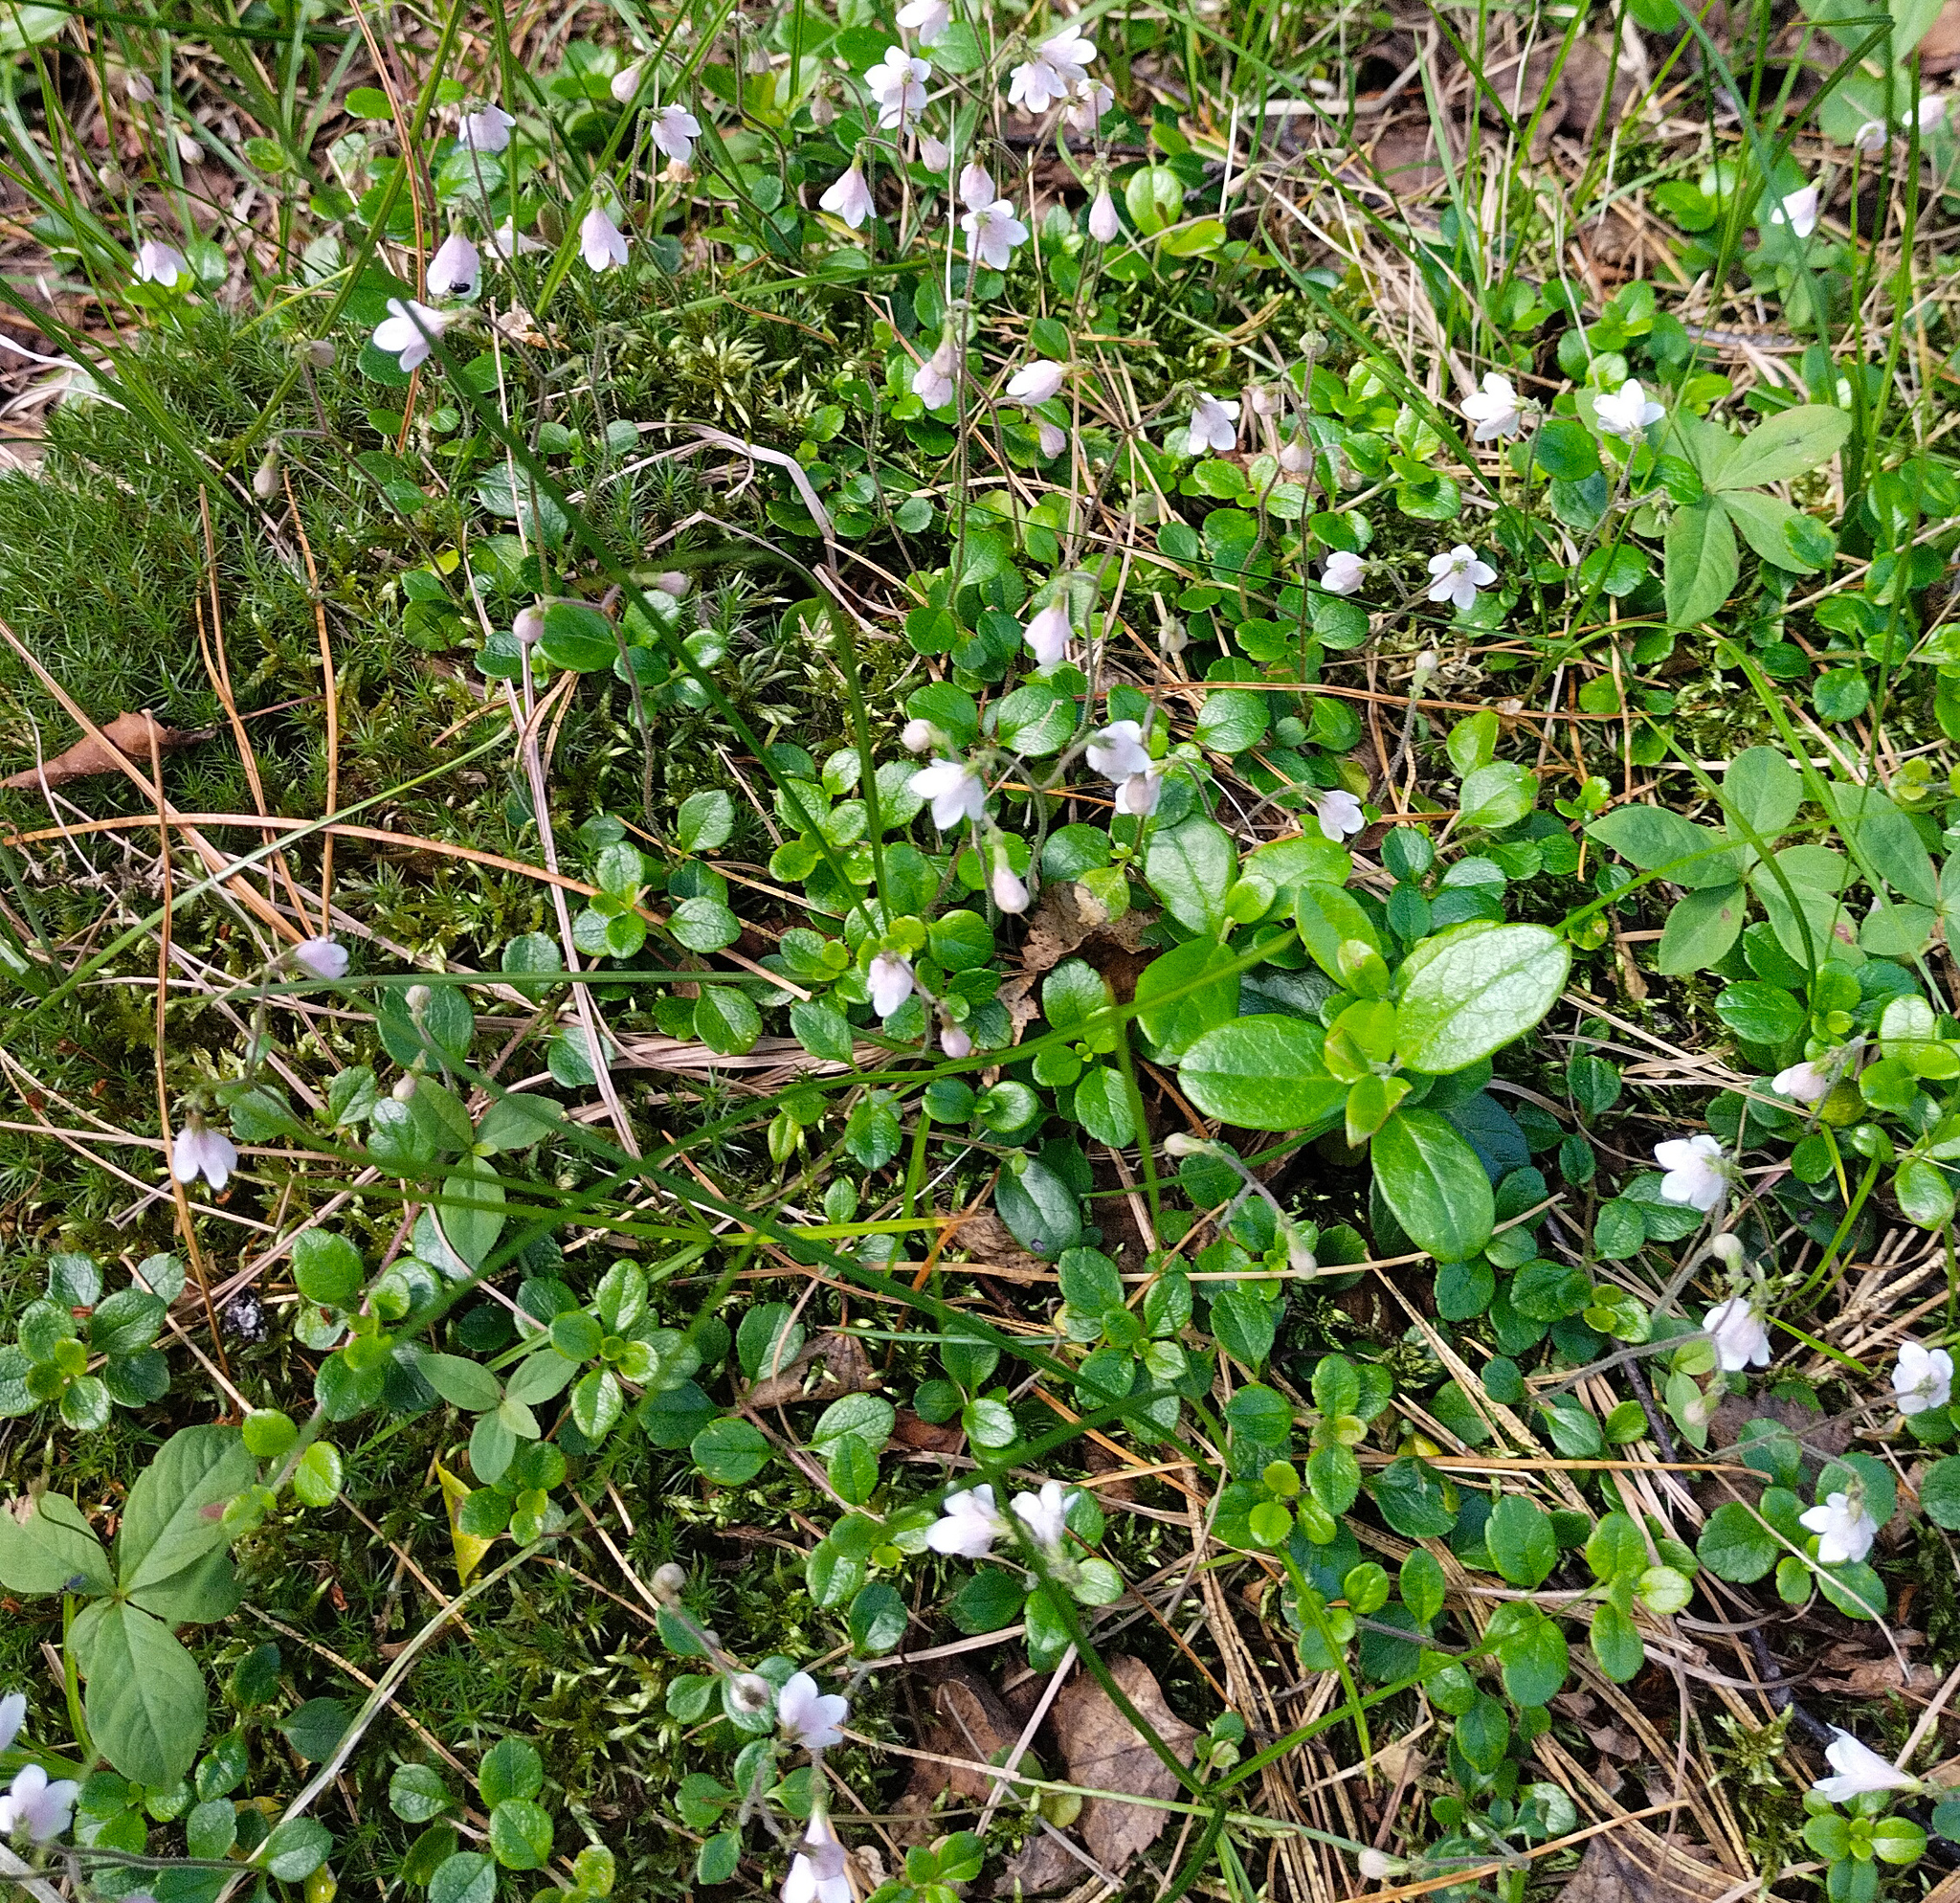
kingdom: Plantae
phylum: Tracheophyta
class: Magnoliopsida
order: Dipsacales
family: Caprifoliaceae
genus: Linnaea
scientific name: Linnaea borealis
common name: Twinflower
